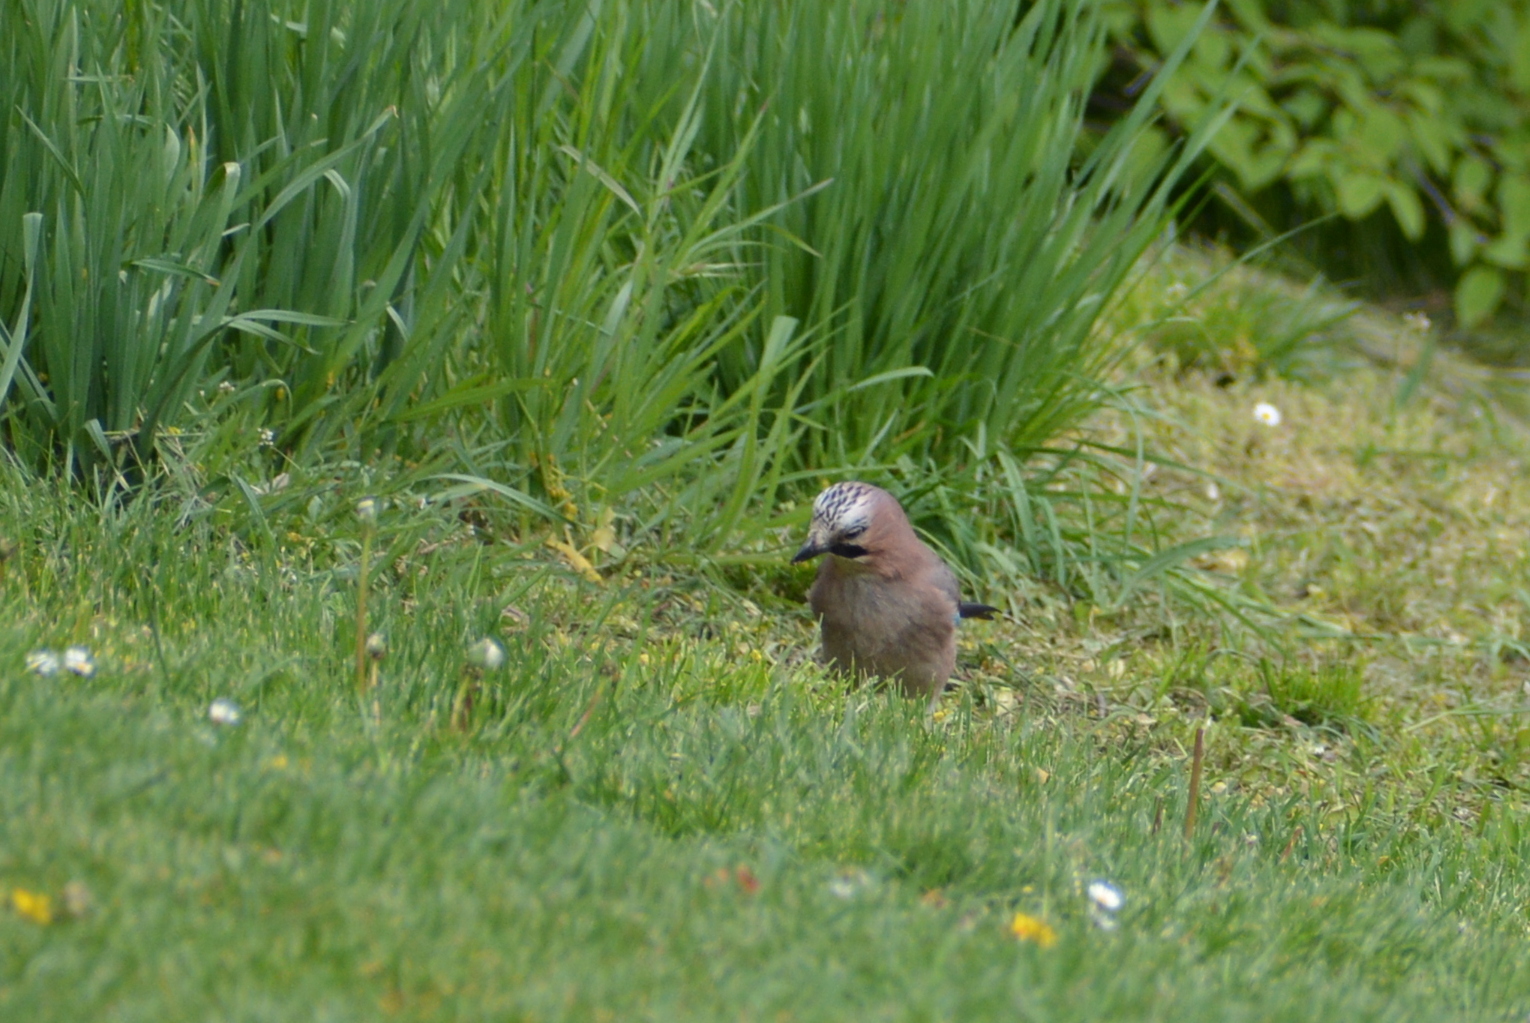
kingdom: Animalia
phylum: Chordata
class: Aves
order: Passeriformes
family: Corvidae
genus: Garrulus
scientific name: Garrulus glandarius
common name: Eurasian jay
